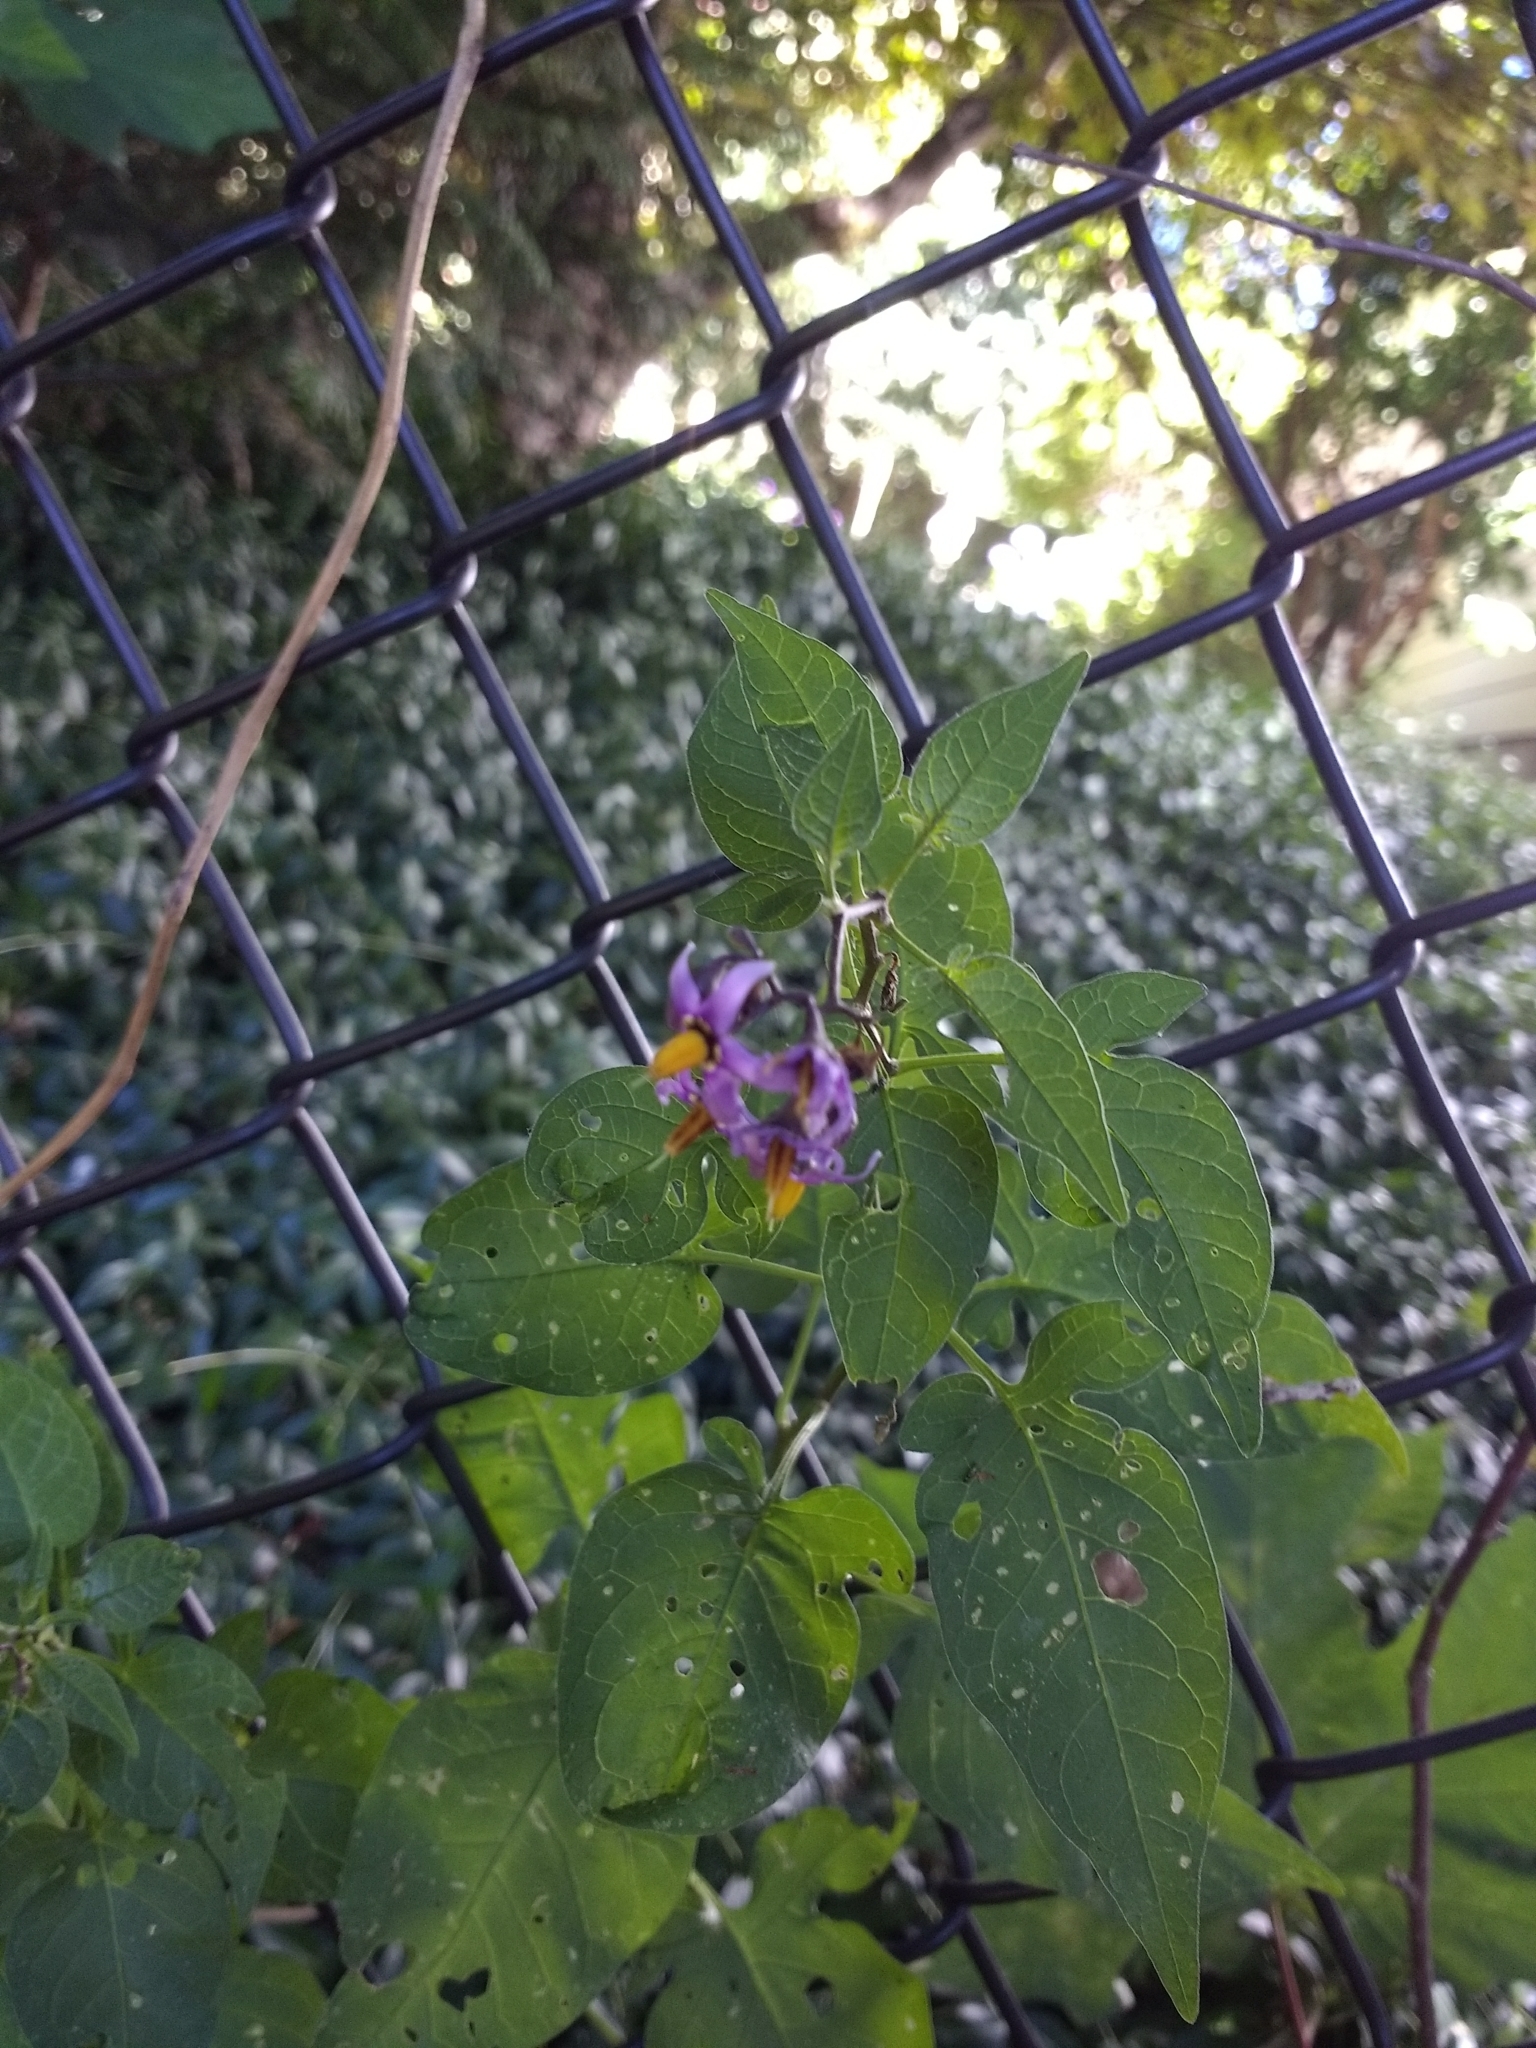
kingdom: Plantae
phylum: Tracheophyta
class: Magnoliopsida
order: Solanales
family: Solanaceae
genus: Solanum
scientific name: Solanum dulcamara
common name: Climbing nightshade
